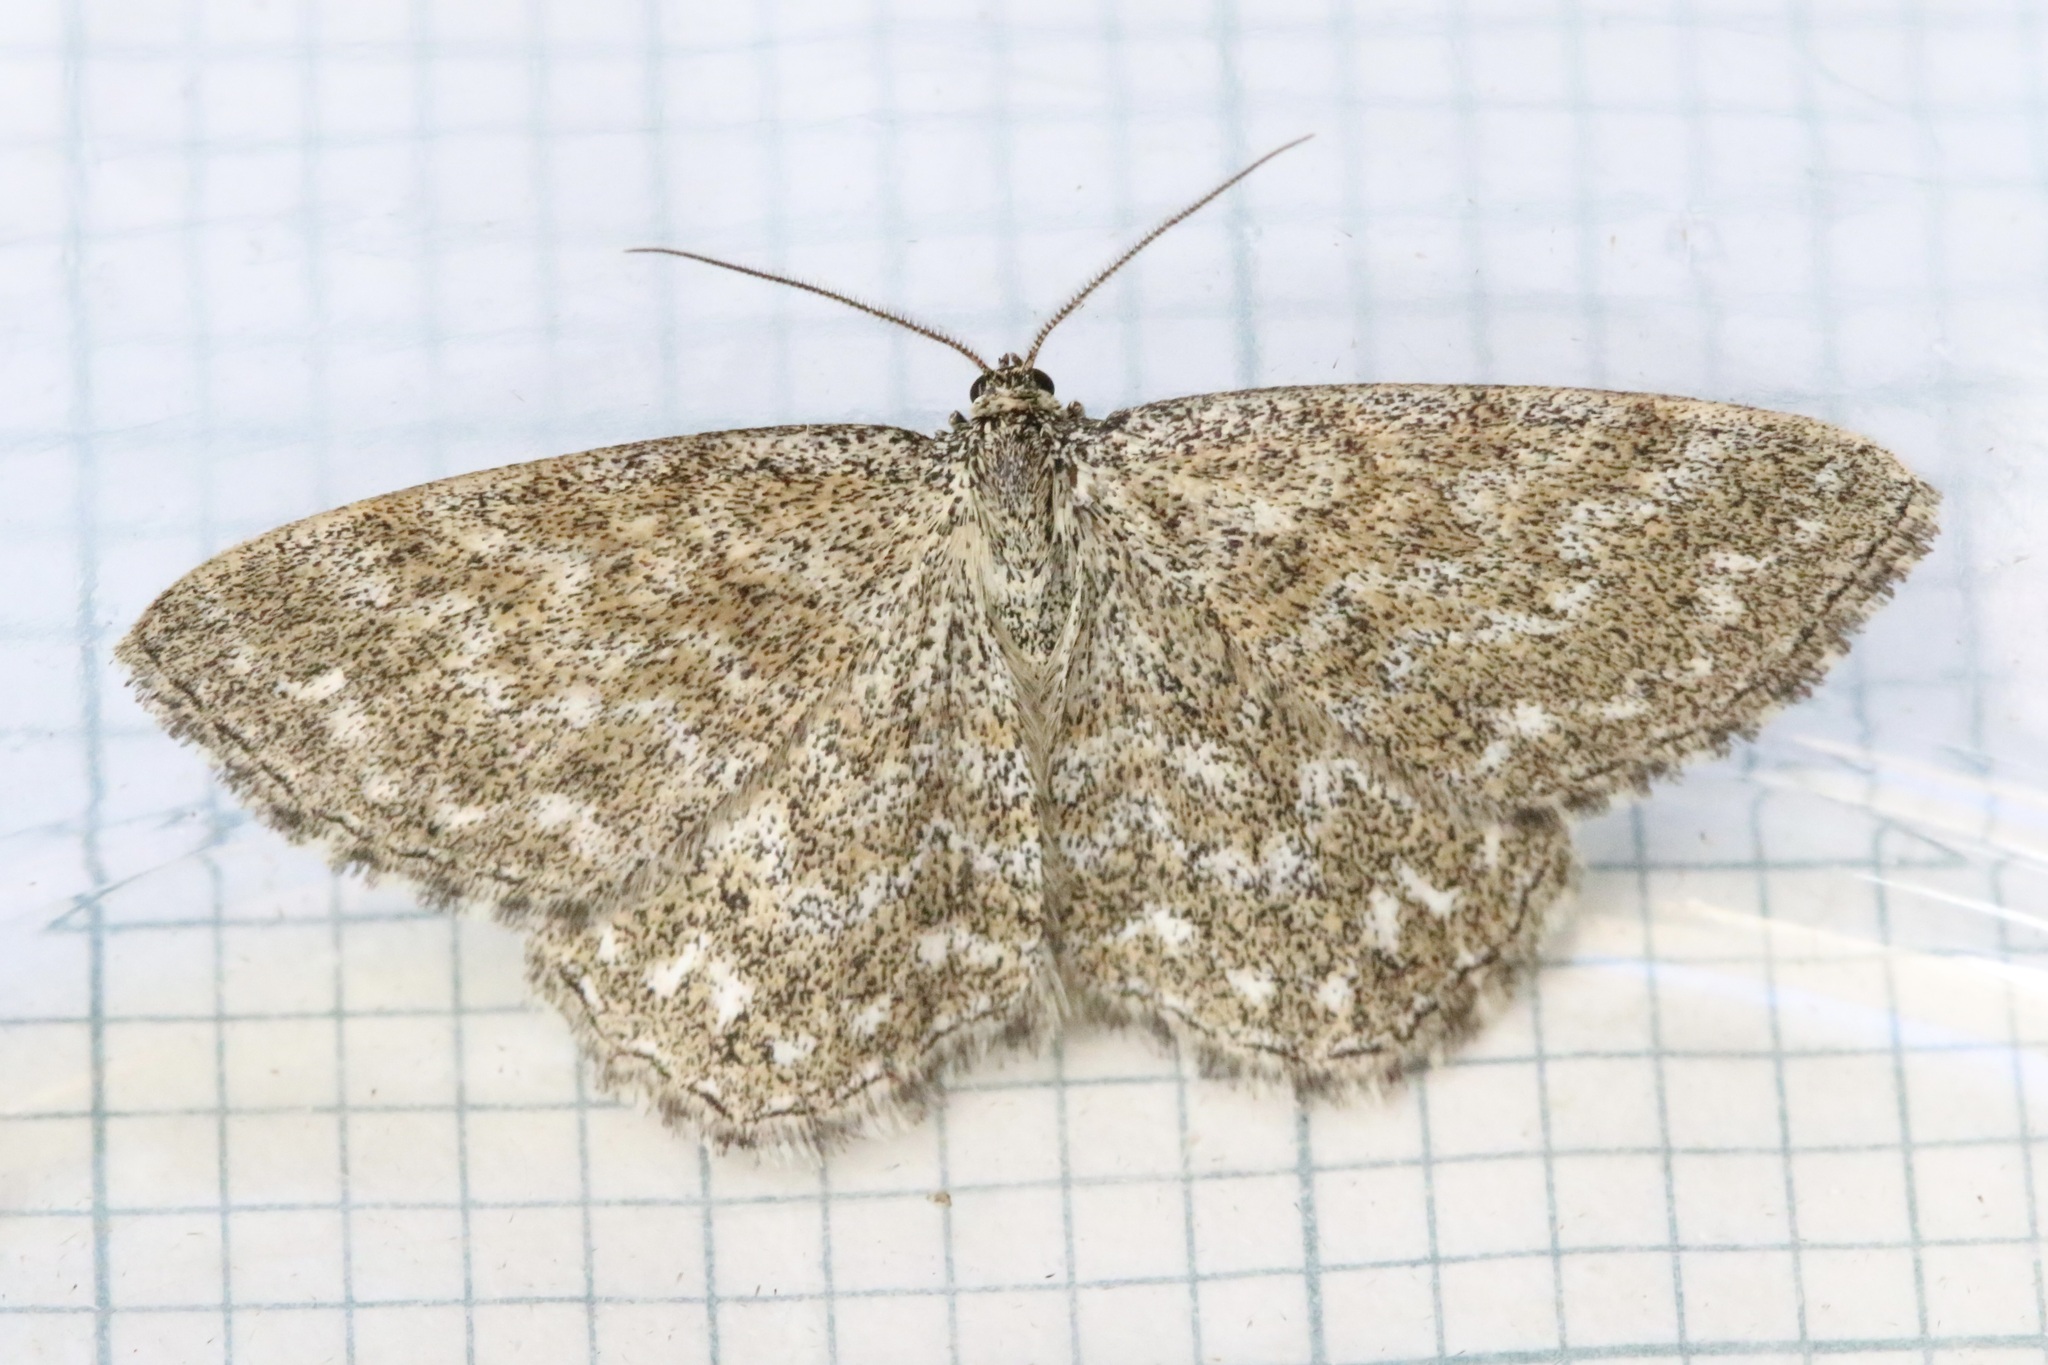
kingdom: Animalia
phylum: Arthropoda
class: Insecta
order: Lepidoptera
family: Geometridae
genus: Scopula
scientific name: Scopula immorata
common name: Lewes wave
